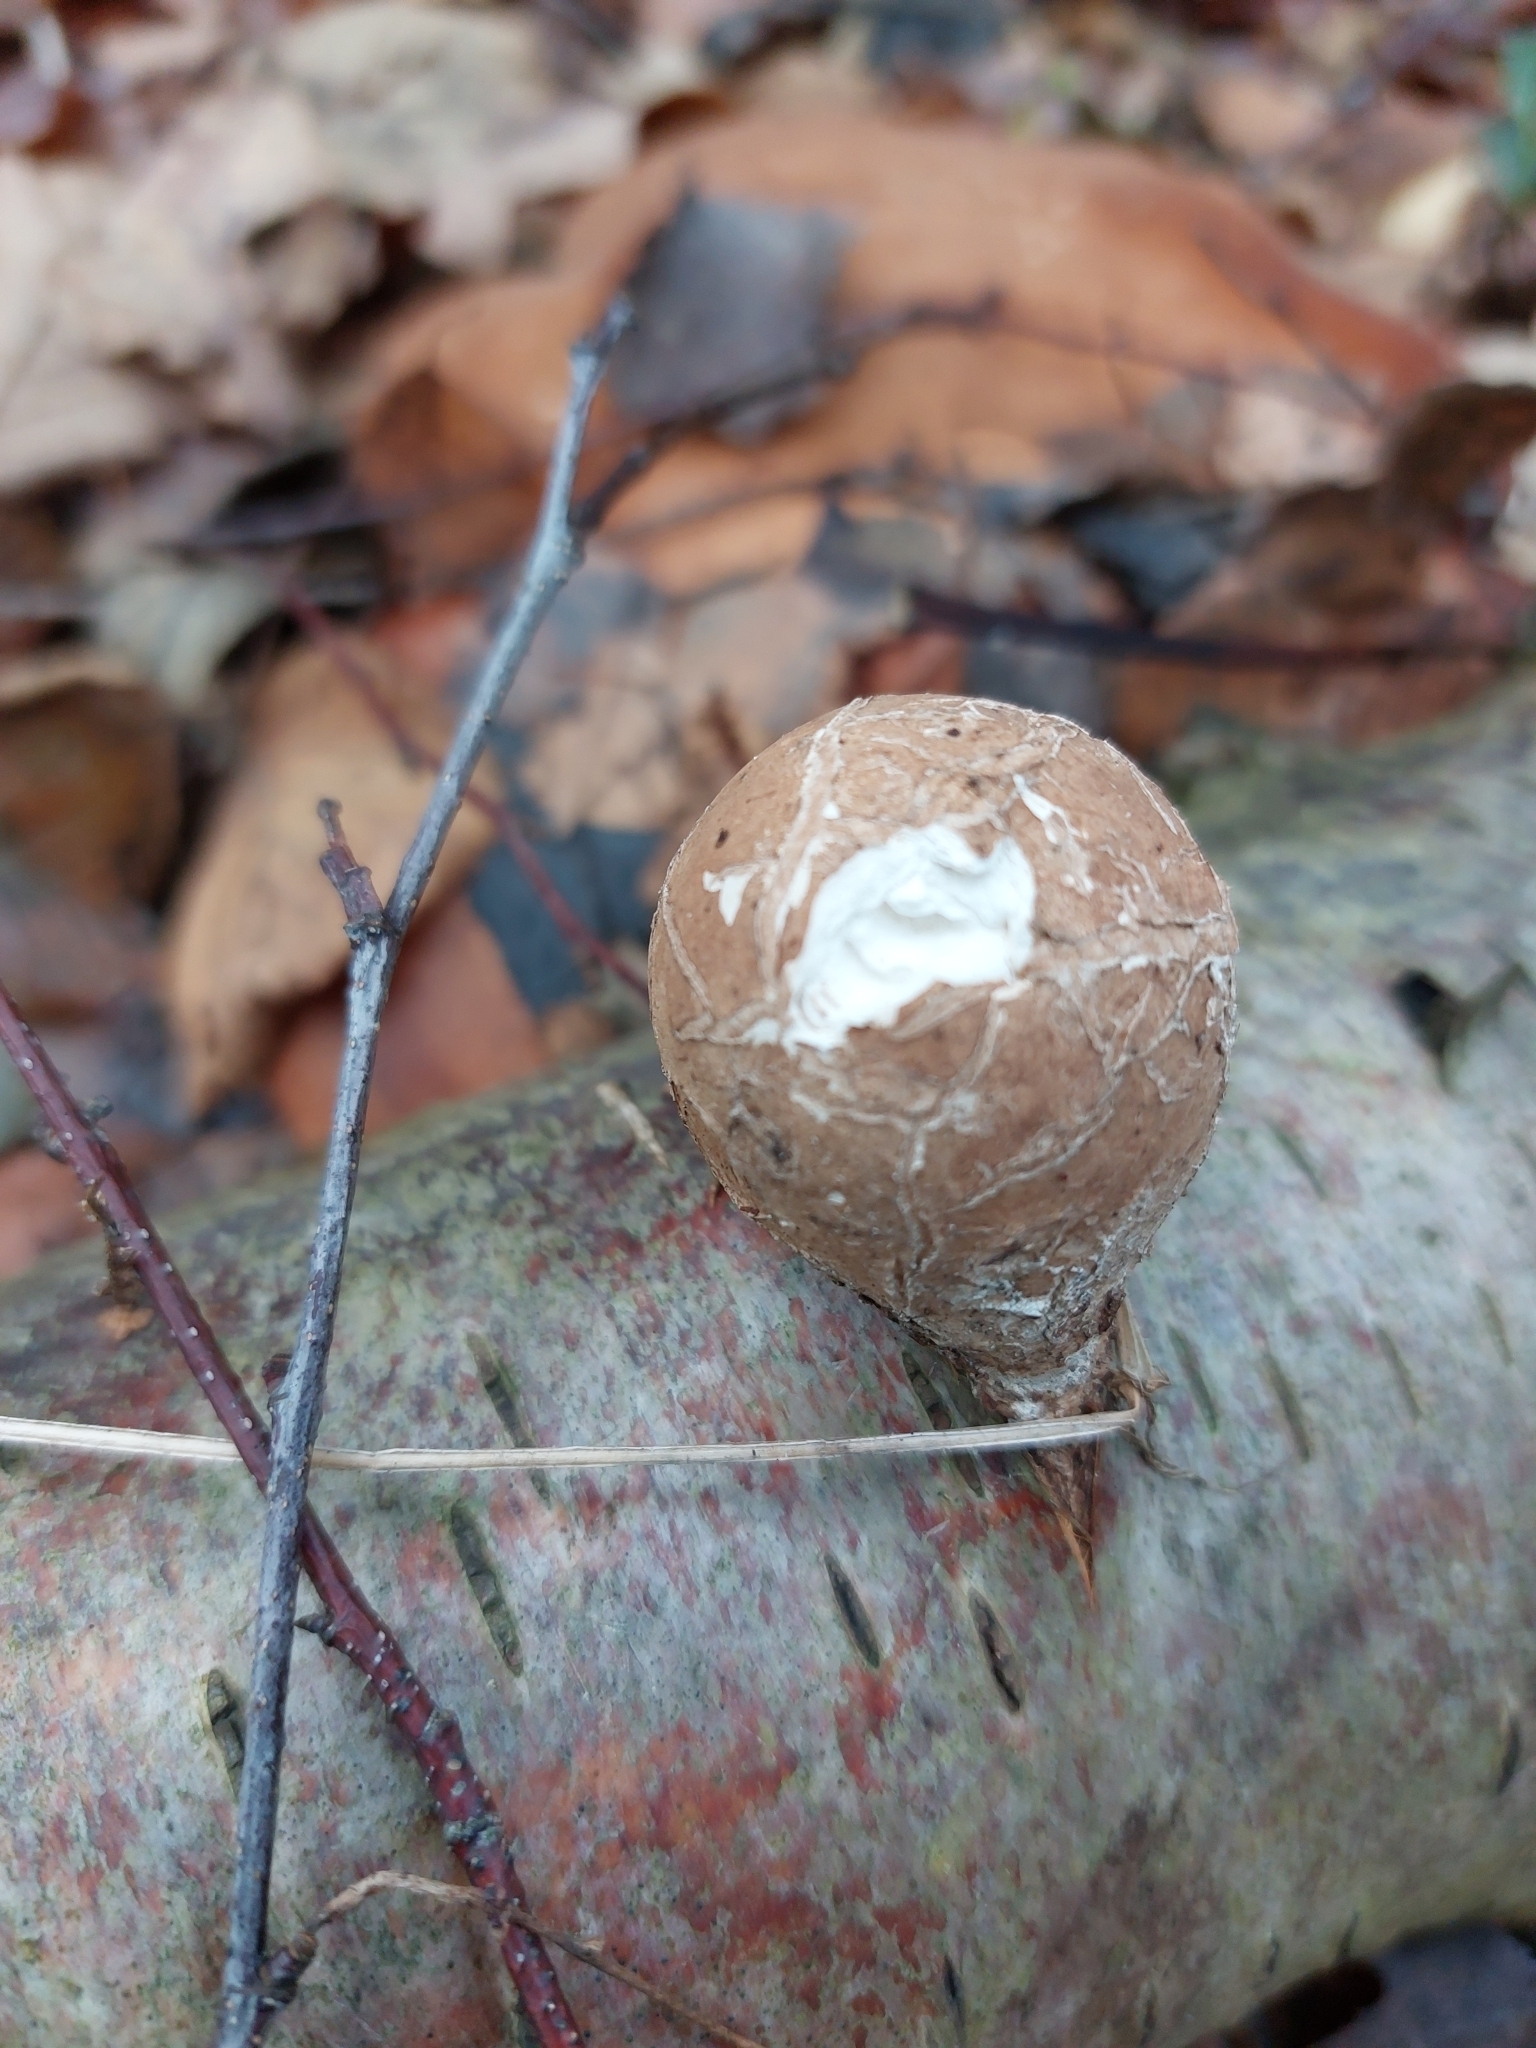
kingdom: Fungi
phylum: Basidiomycota
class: Agaricomycetes
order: Polyporales
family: Fomitopsidaceae
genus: Fomitopsis
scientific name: Fomitopsis betulina
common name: Birch polypore
